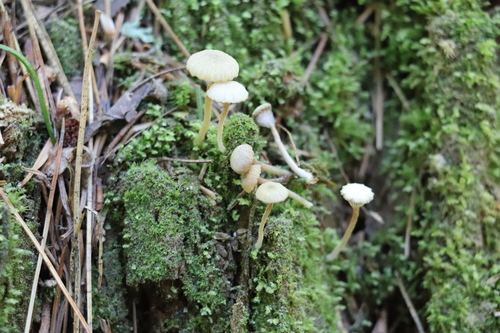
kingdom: Fungi
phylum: Basidiomycota
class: Agaricomycetes
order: Agaricales
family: Hygrophoraceae
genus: Lichenomphalia
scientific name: Lichenomphalia umbellifera
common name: Heath navel
